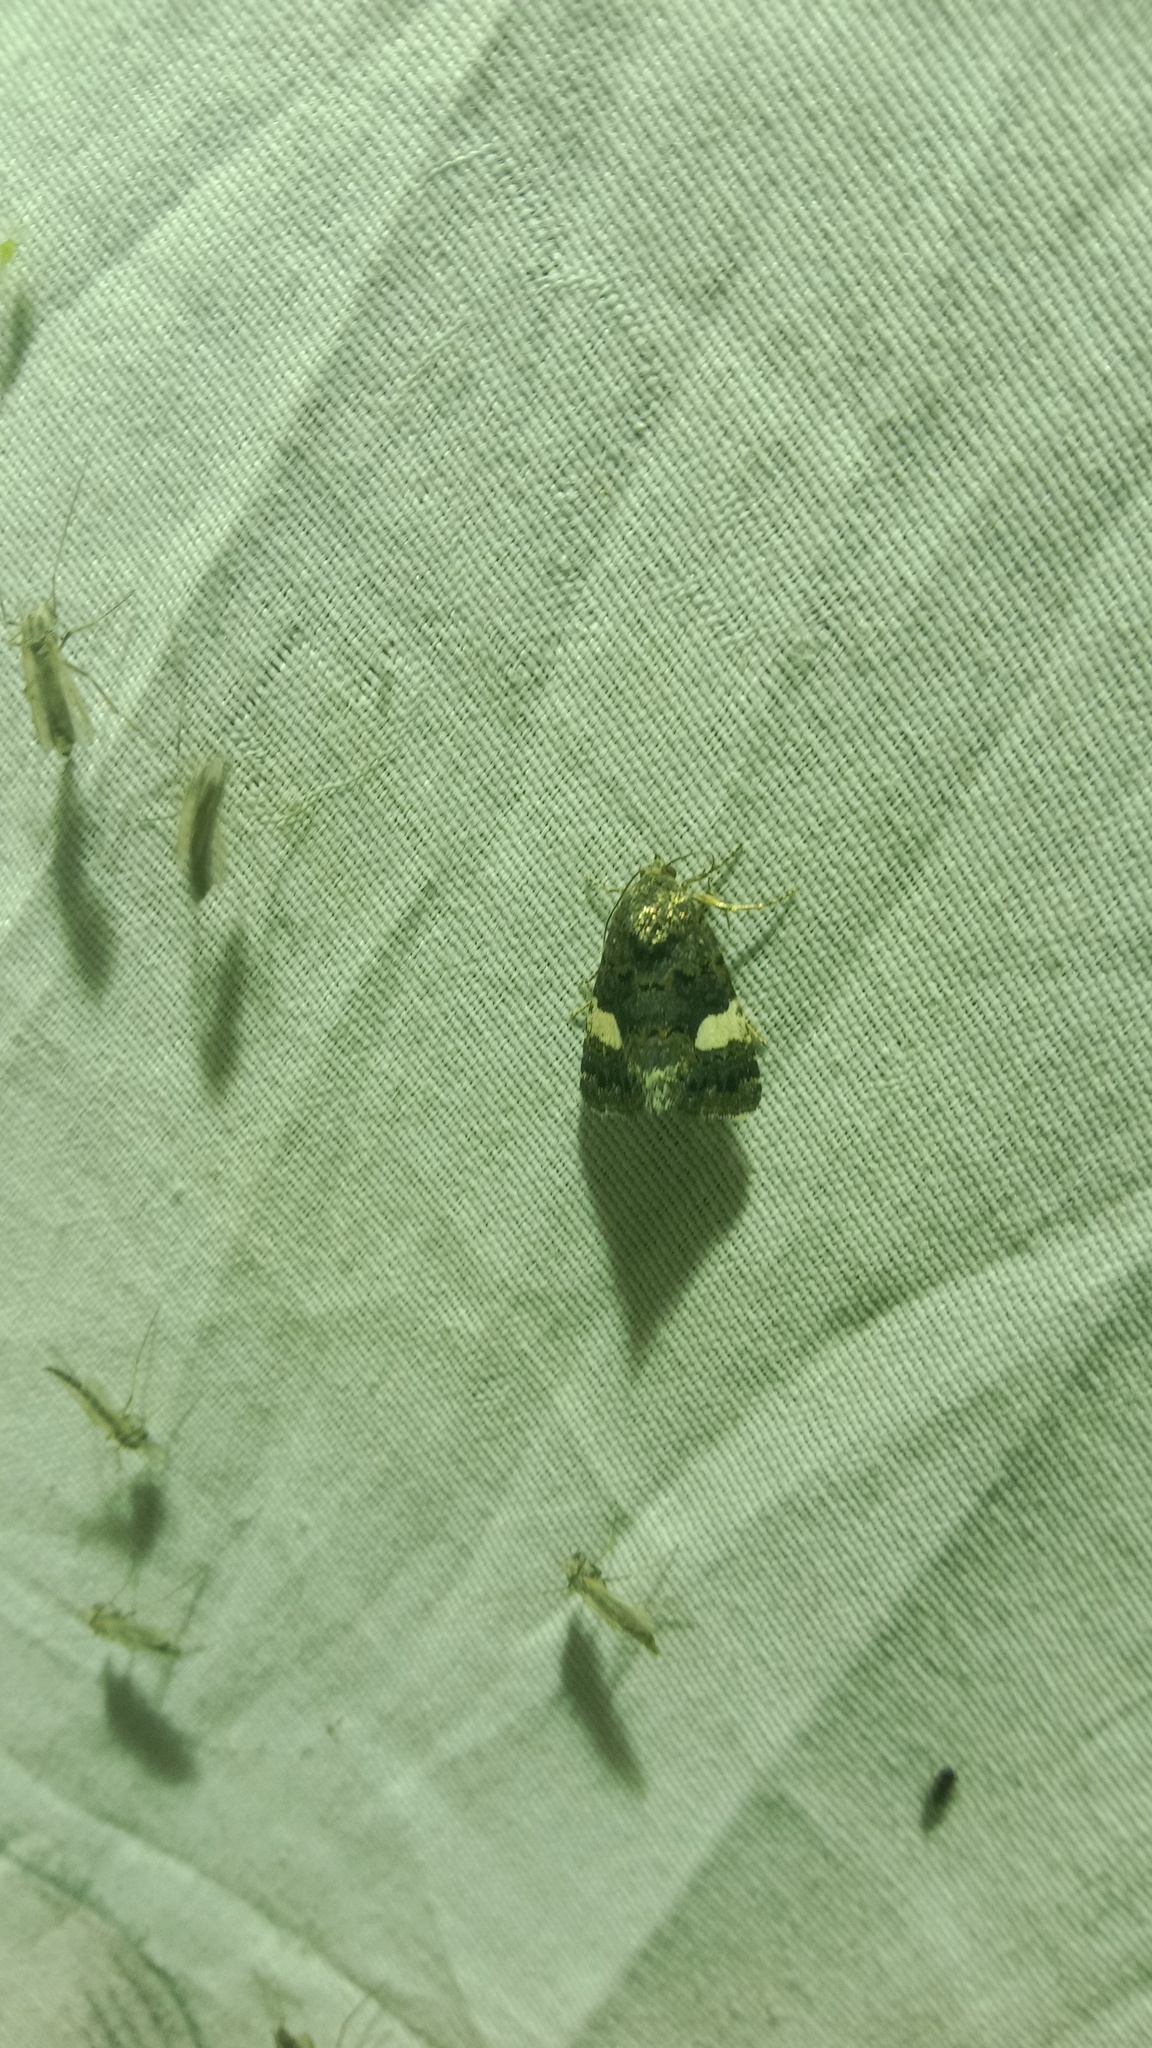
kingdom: Animalia
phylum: Arthropoda
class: Insecta
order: Lepidoptera
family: Erebidae
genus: Tyta
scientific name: Tyta luctuosa
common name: Four-spotted
